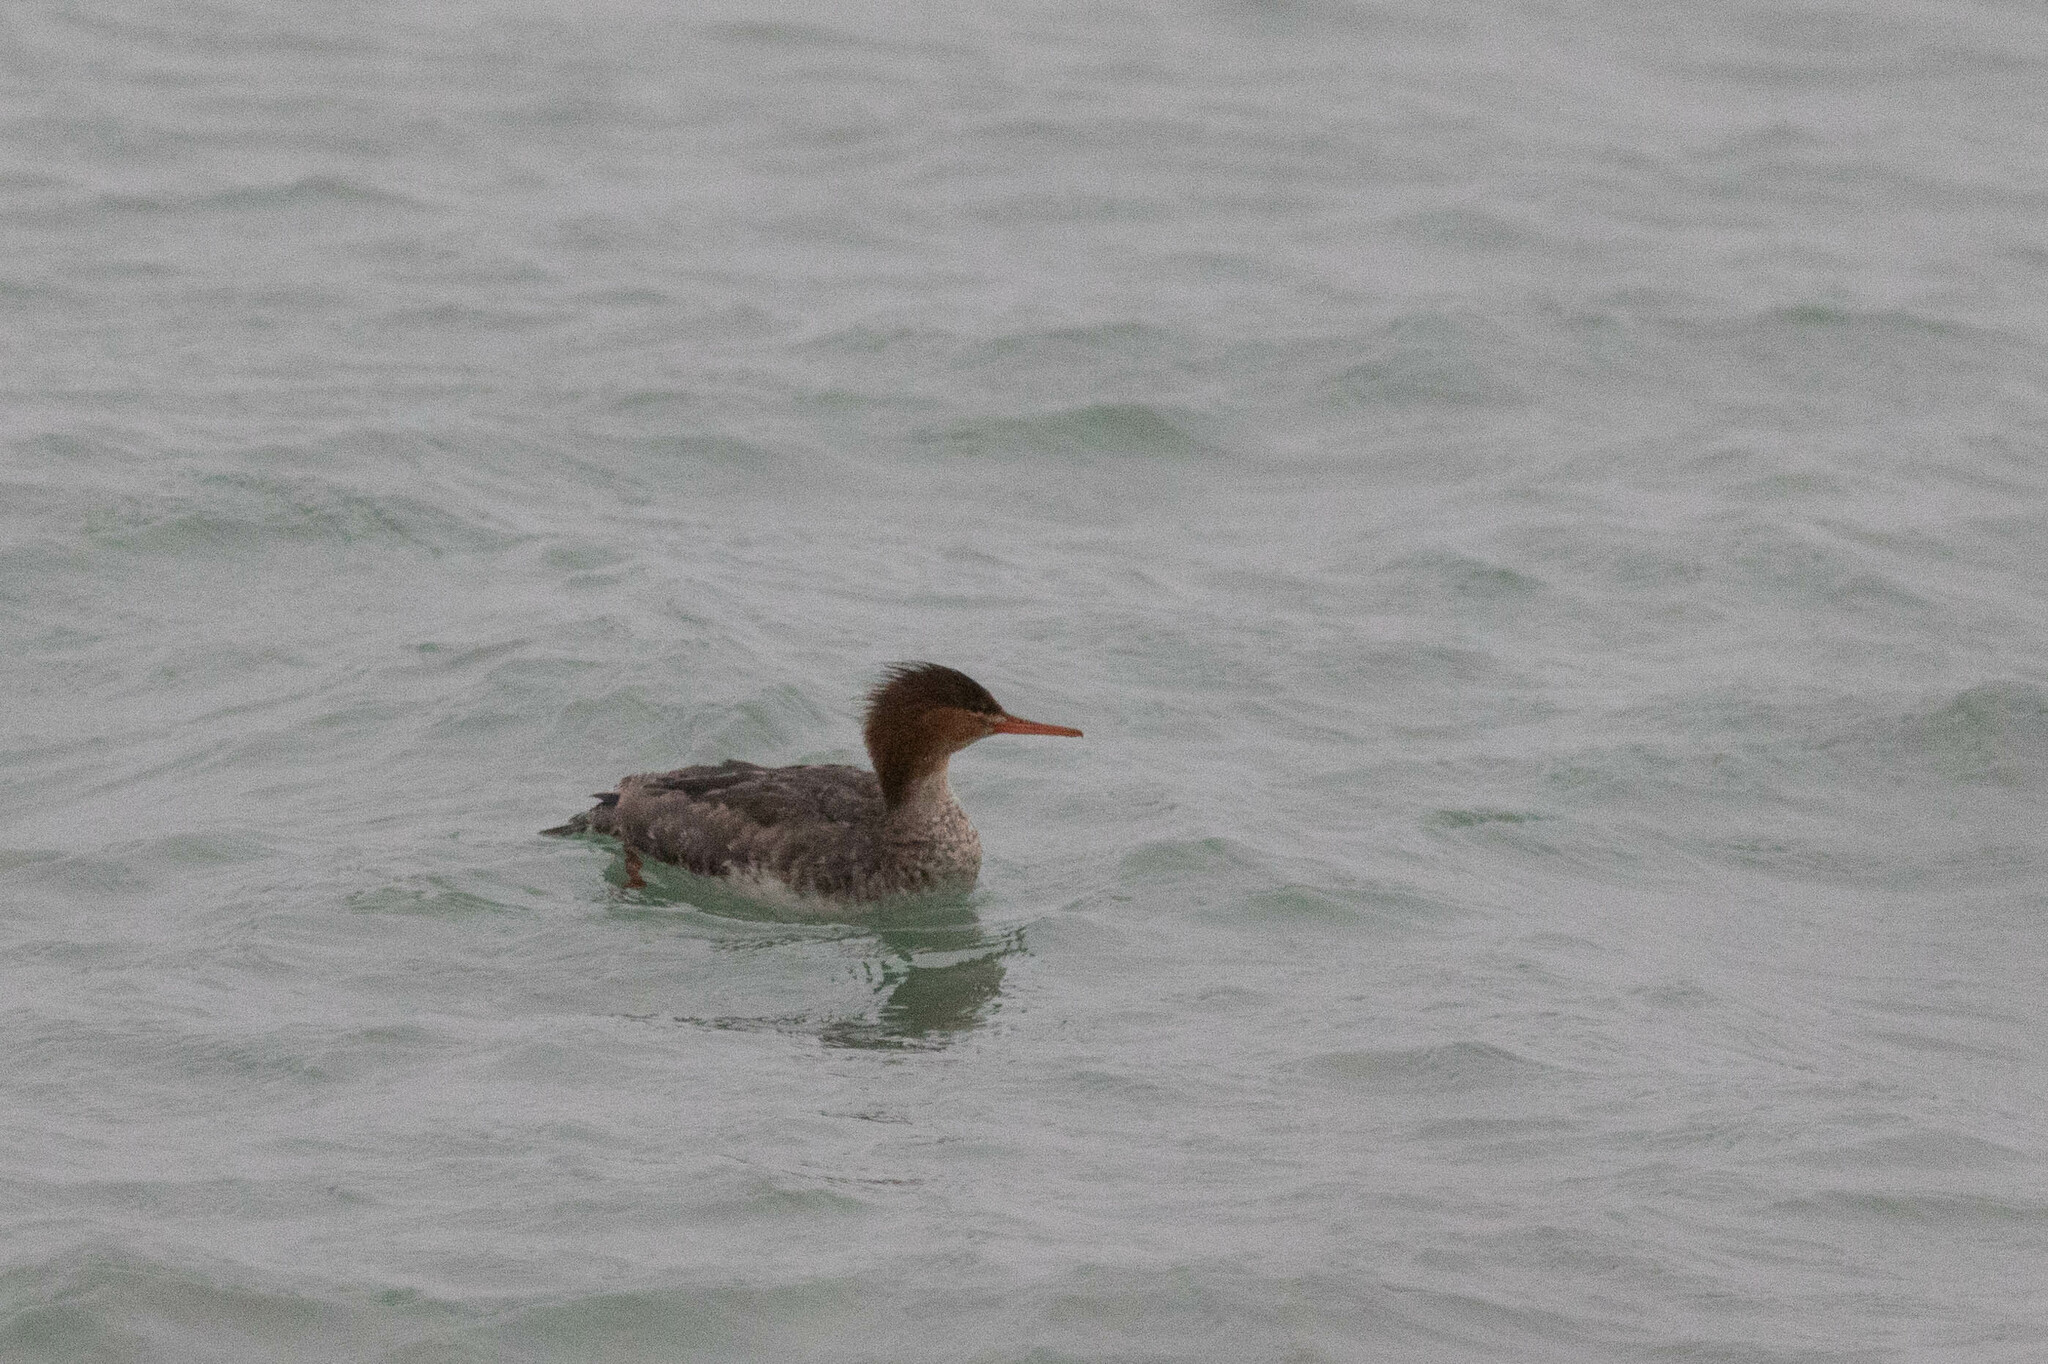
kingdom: Animalia
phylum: Chordata
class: Aves
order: Anseriformes
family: Anatidae
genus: Mergus
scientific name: Mergus serrator
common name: Red-breasted merganser
